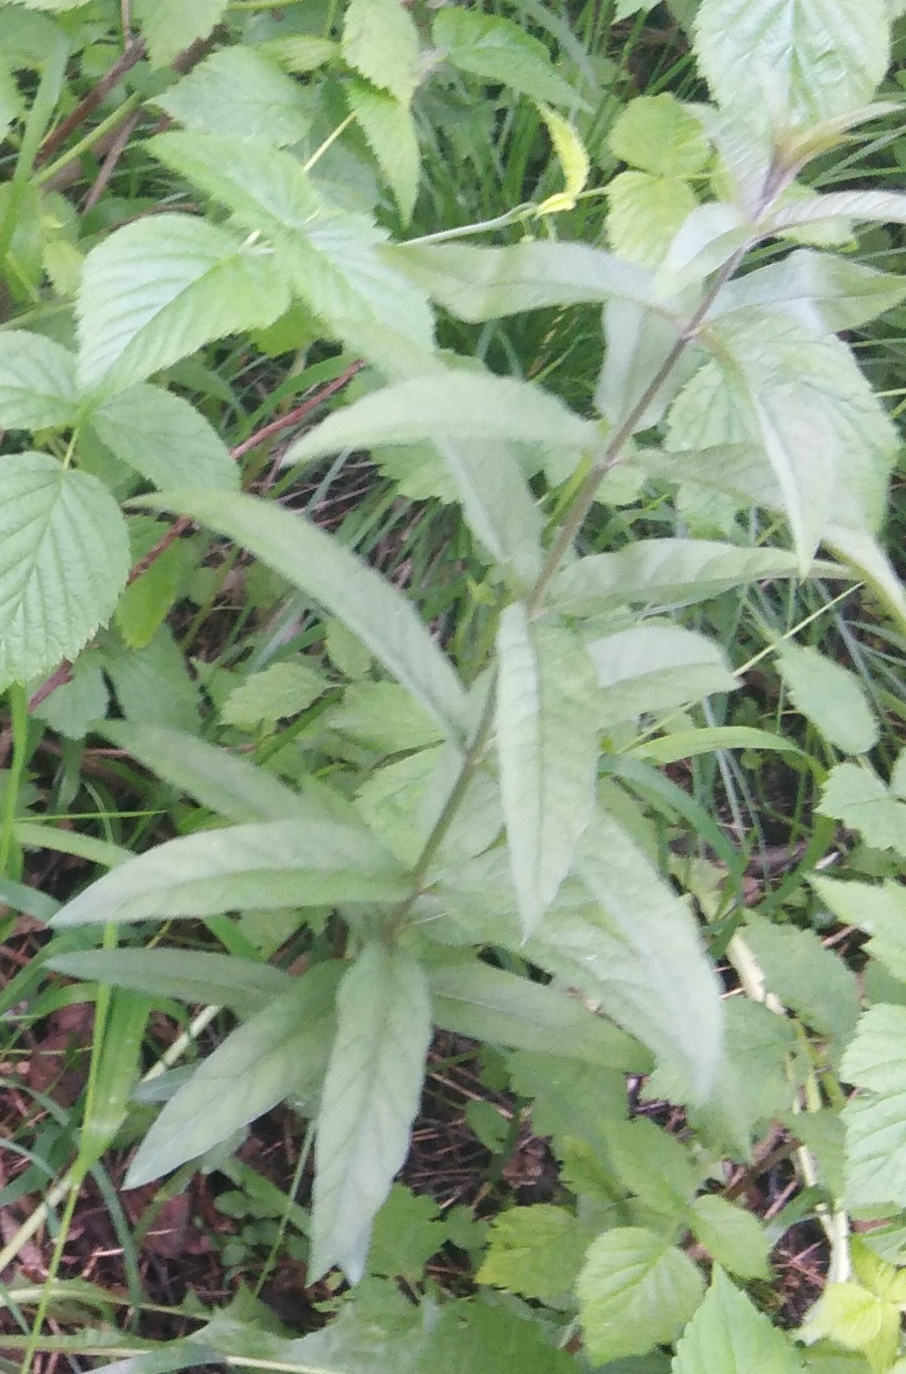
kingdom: Plantae
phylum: Tracheophyta
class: Magnoliopsida
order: Ericales
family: Primulaceae
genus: Lysimachia
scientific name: Lysimachia vulgaris
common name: Yellow loosestrife
